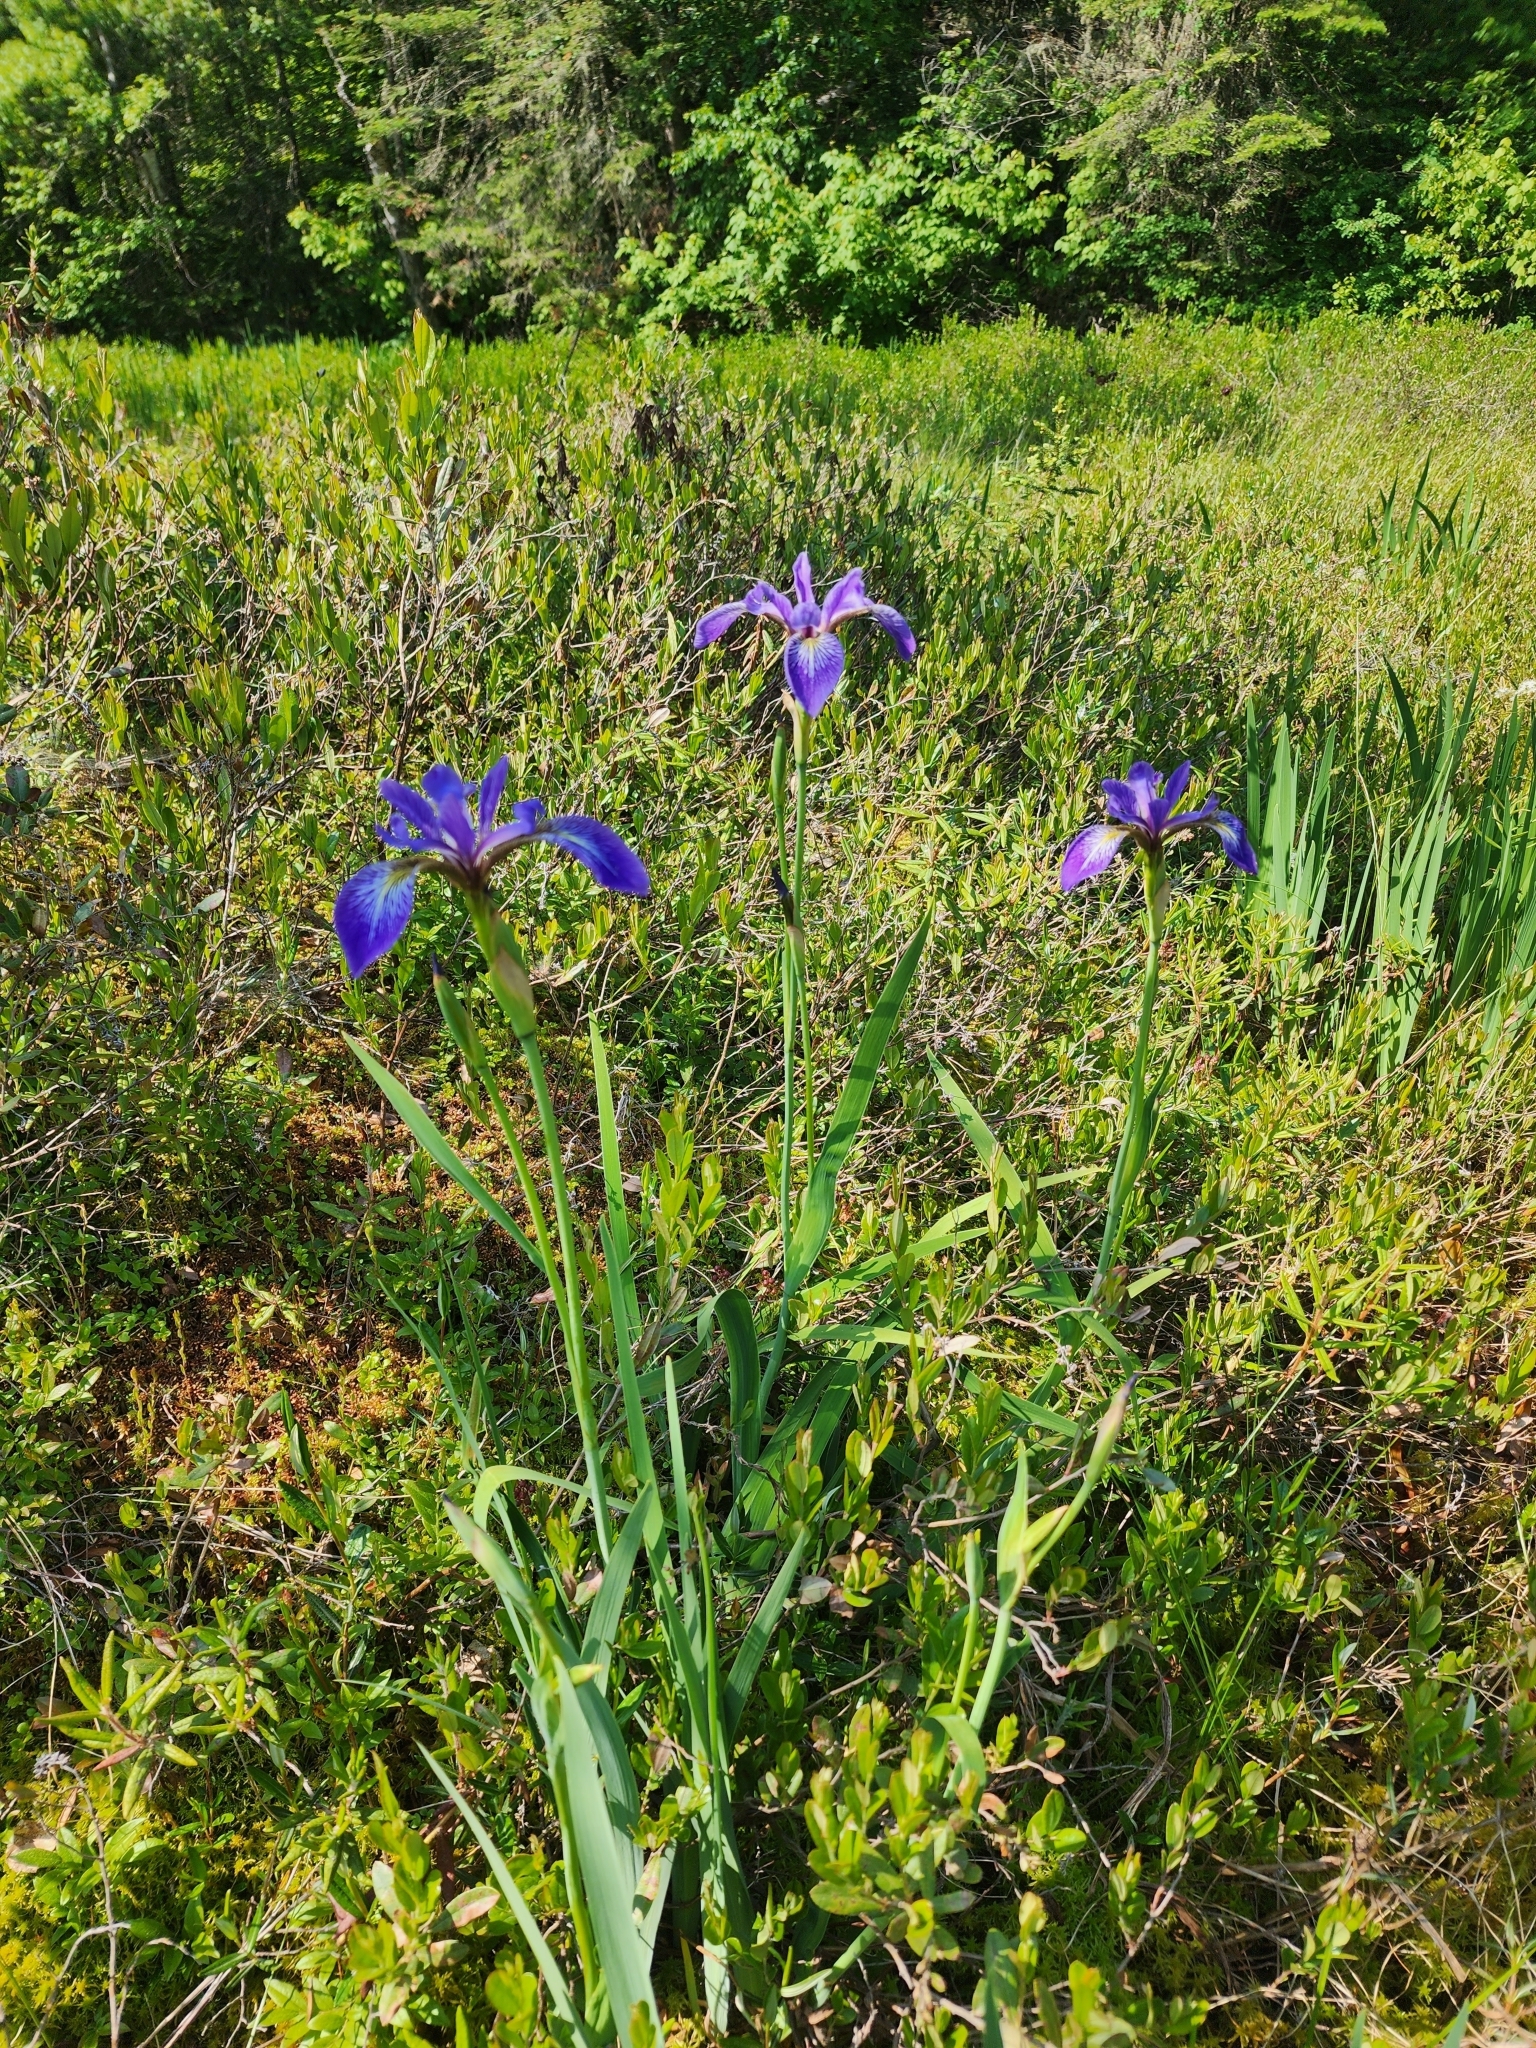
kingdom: Plantae
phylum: Tracheophyta
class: Liliopsida
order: Asparagales
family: Iridaceae
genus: Iris
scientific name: Iris versicolor
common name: Purple iris
